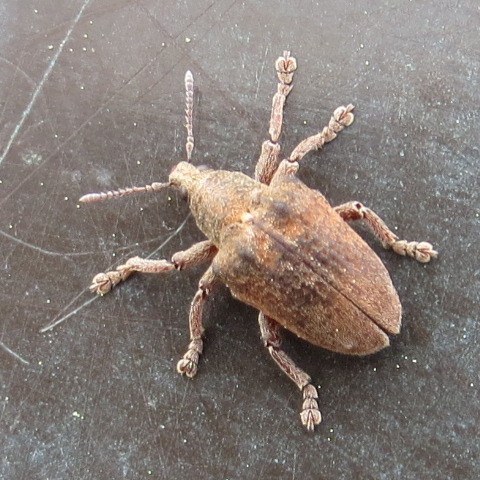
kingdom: Animalia
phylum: Arthropoda
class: Insecta
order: Coleoptera
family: Curculionidae
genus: Gonipterus
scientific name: Gonipterus platensis
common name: Eucalyptus snout beetle
